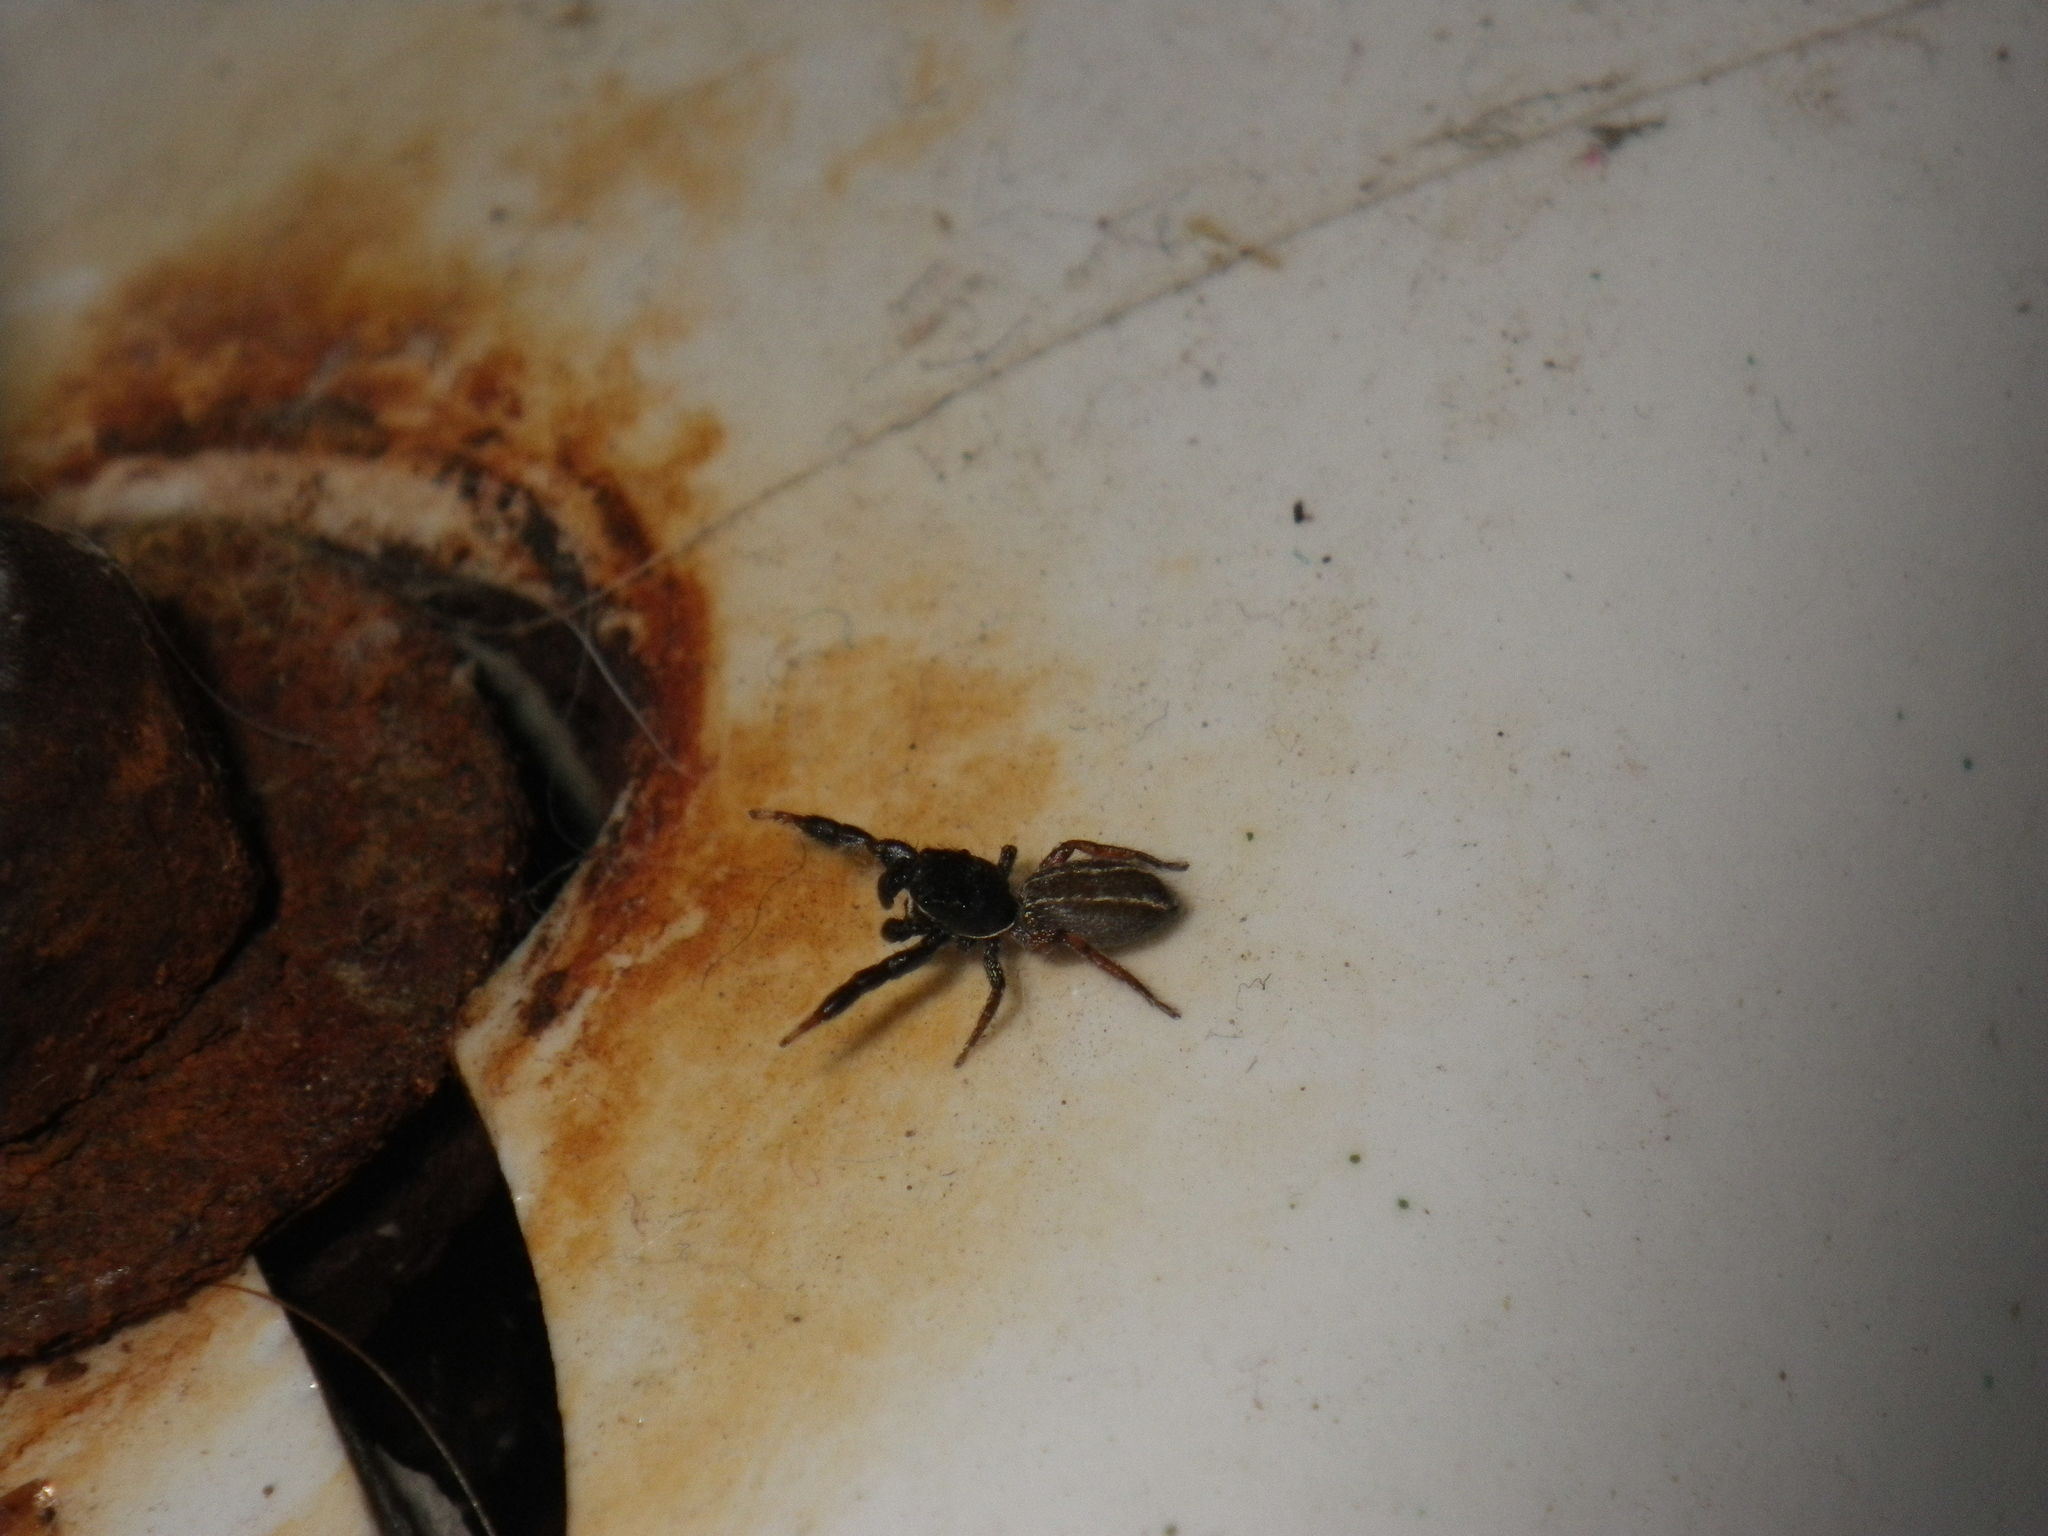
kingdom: Animalia
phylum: Arthropoda
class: Arachnida
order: Araneae
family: Salticidae
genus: Metacyrba
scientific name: Metacyrba taeniola
